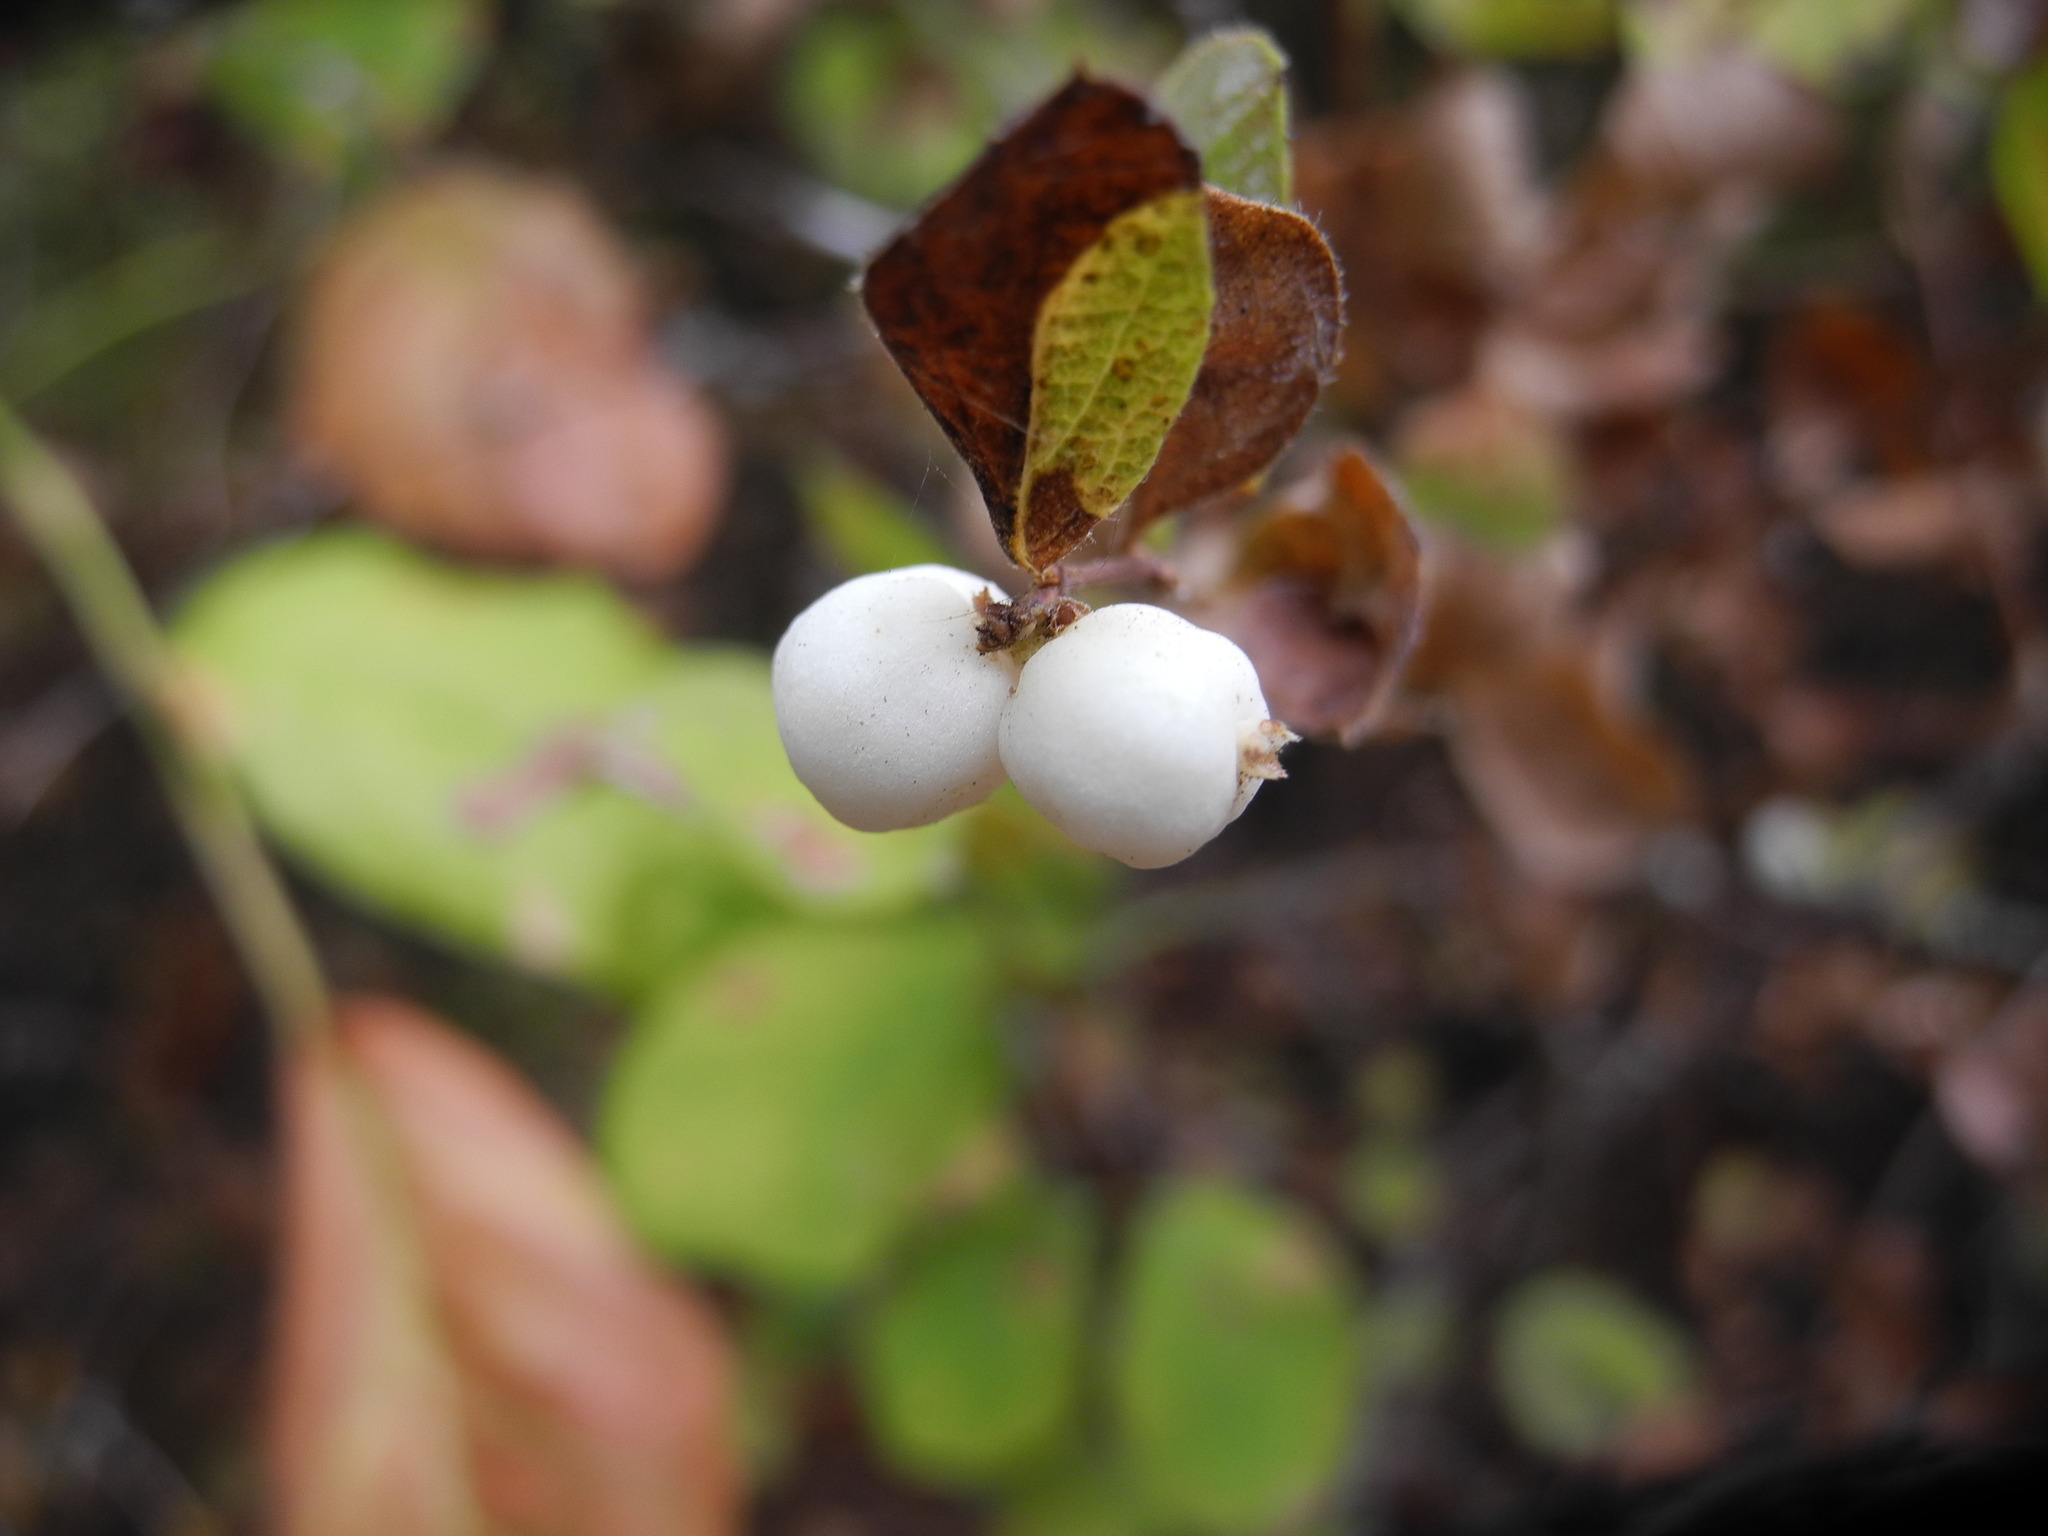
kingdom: Plantae
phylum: Tracheophyta
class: Magnoliopsida
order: Dipsacales
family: Caprifoliaceae
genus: Symphoricarpos
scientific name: Symphoricarpos albus
